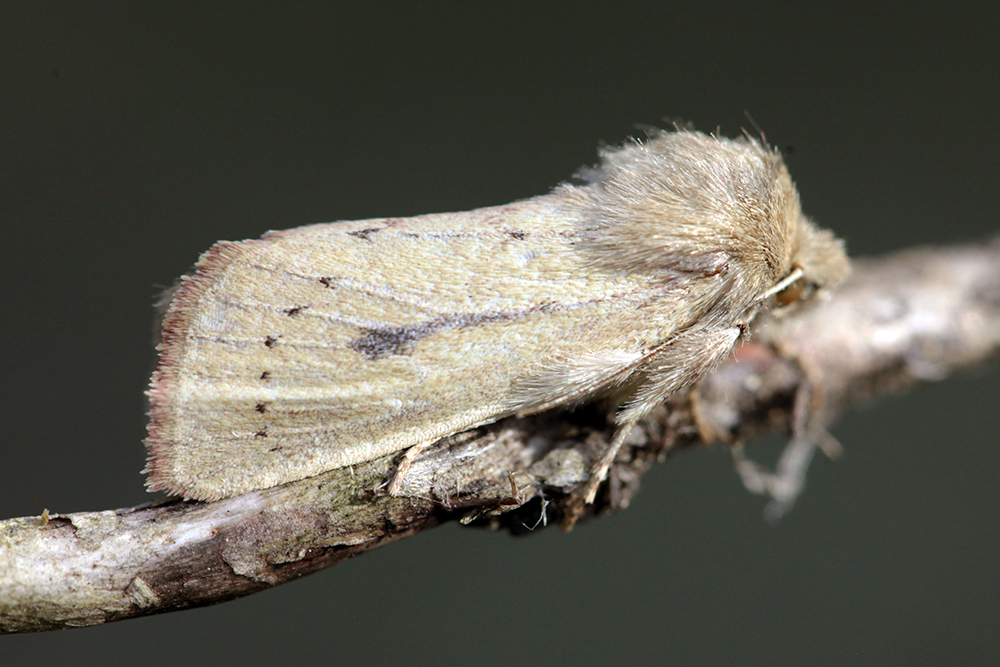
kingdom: Animalia
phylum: Arthropoda
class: Insecta
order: Lepidoptera
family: Noctuidae
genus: Globia
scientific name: Globia algae
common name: Rush wainscot
